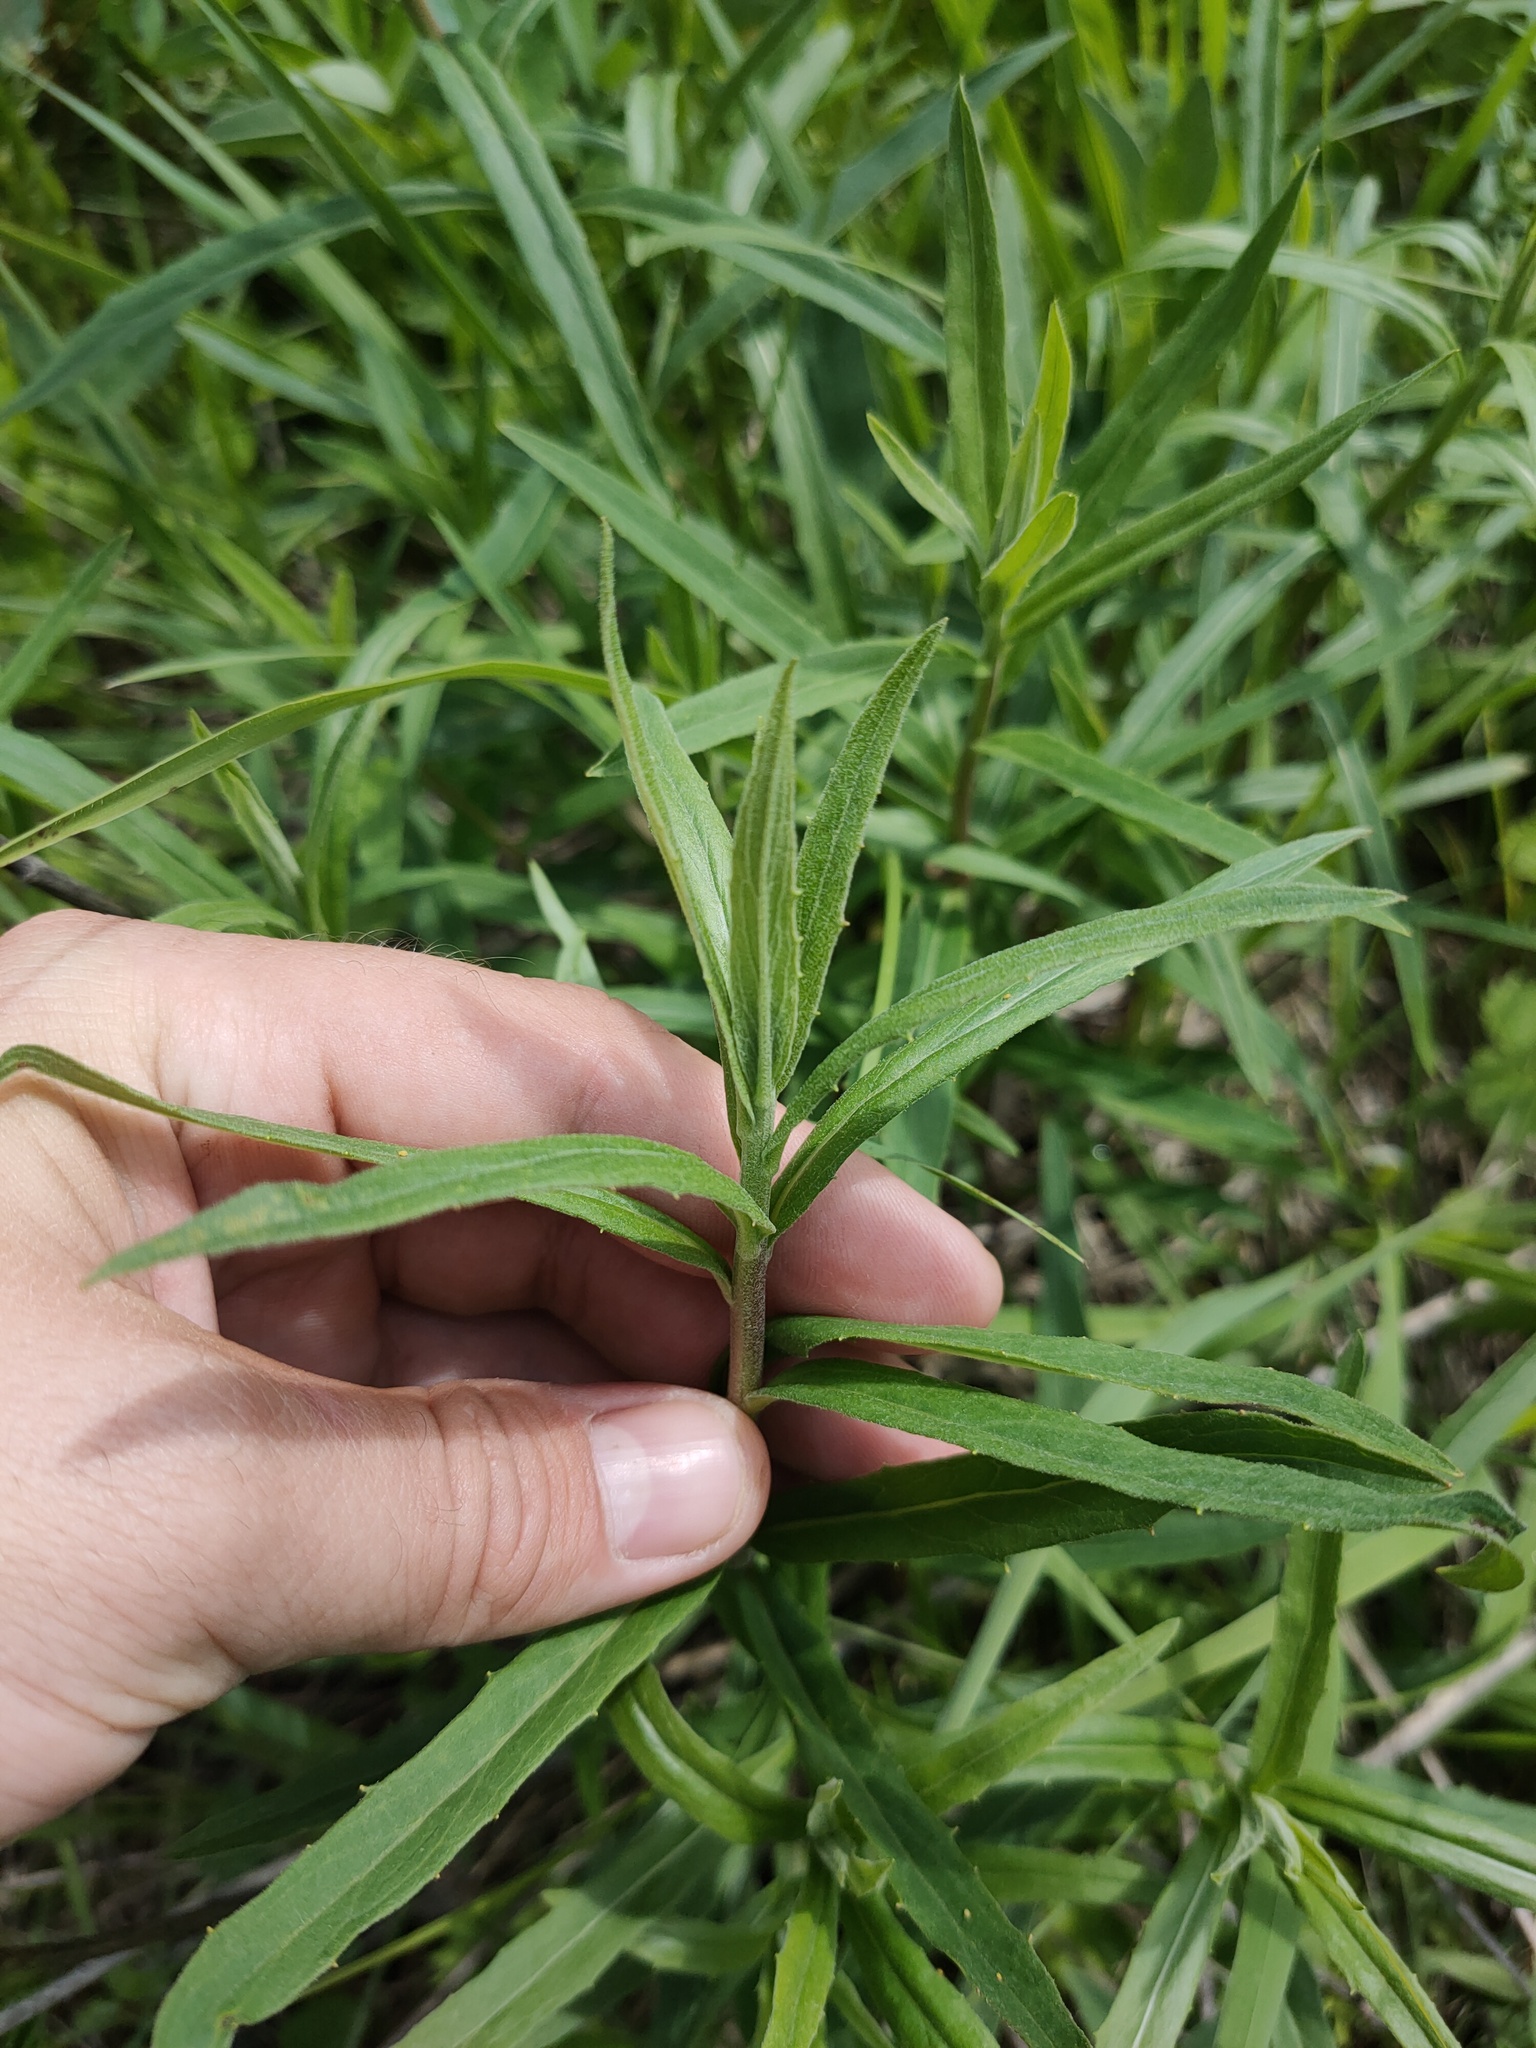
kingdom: Plantae
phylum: Tracheophyta
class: Magnoliopsida
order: Asterales
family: Asteraceae
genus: Hieracium
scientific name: Hieracium umbellatum
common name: Northern hawkweed
